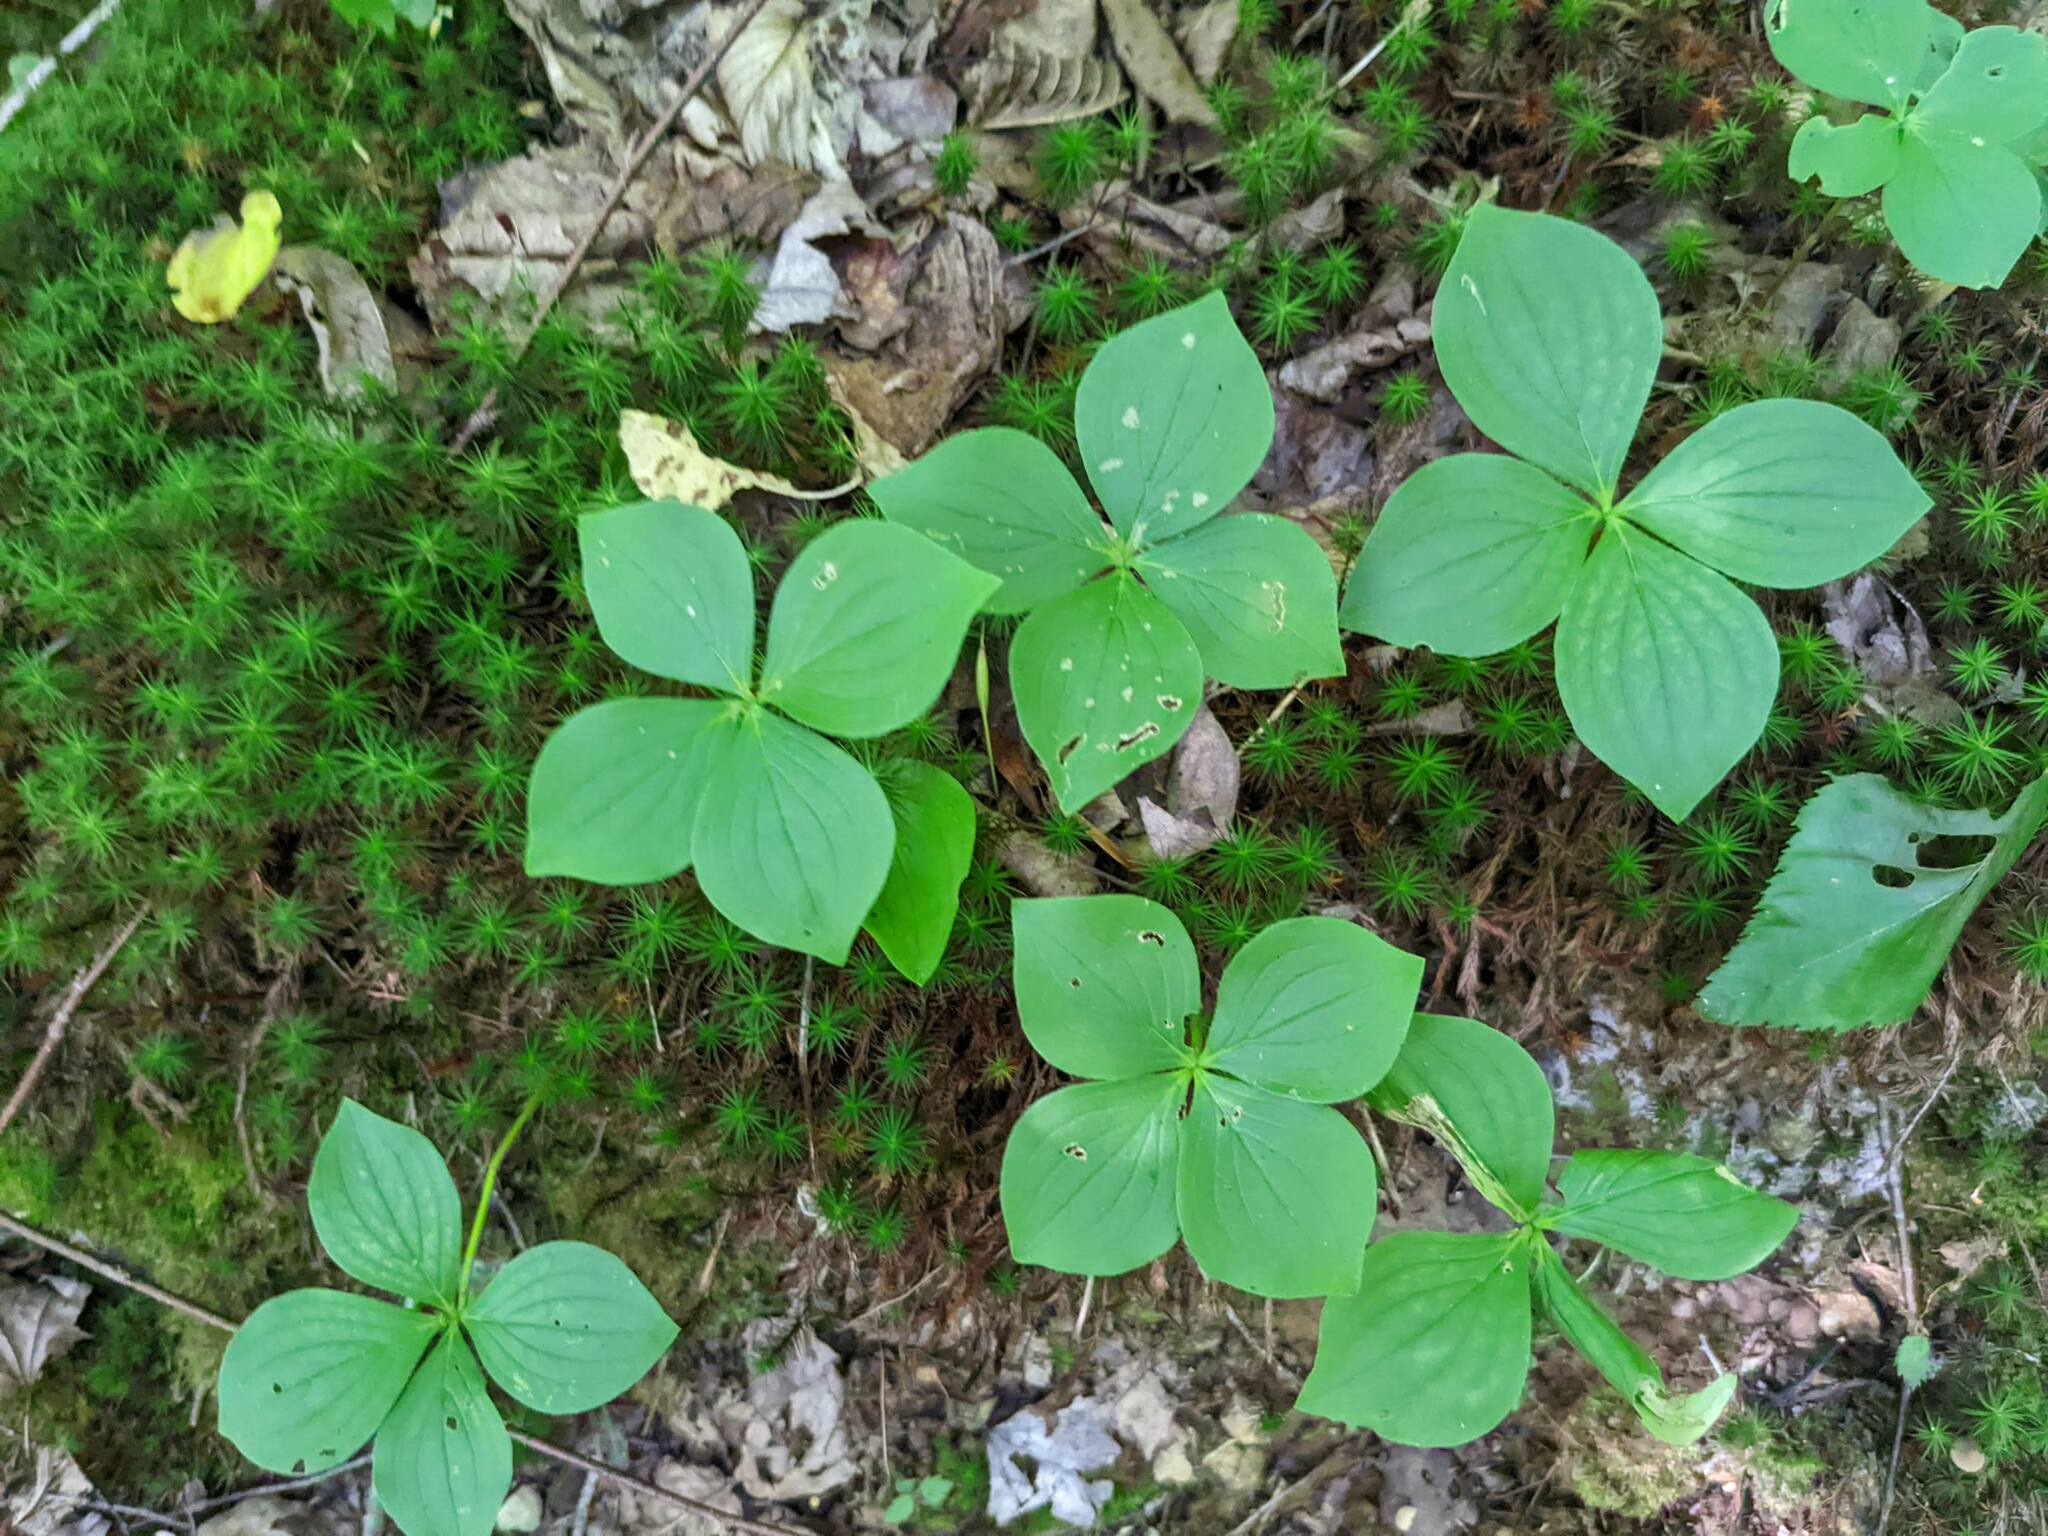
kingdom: Plantae
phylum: Tracheophyta
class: Magnoliopsida
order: Cornales
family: Cornaceae
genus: Cornus
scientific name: Cornus canadensis
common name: Creeping dogwood
